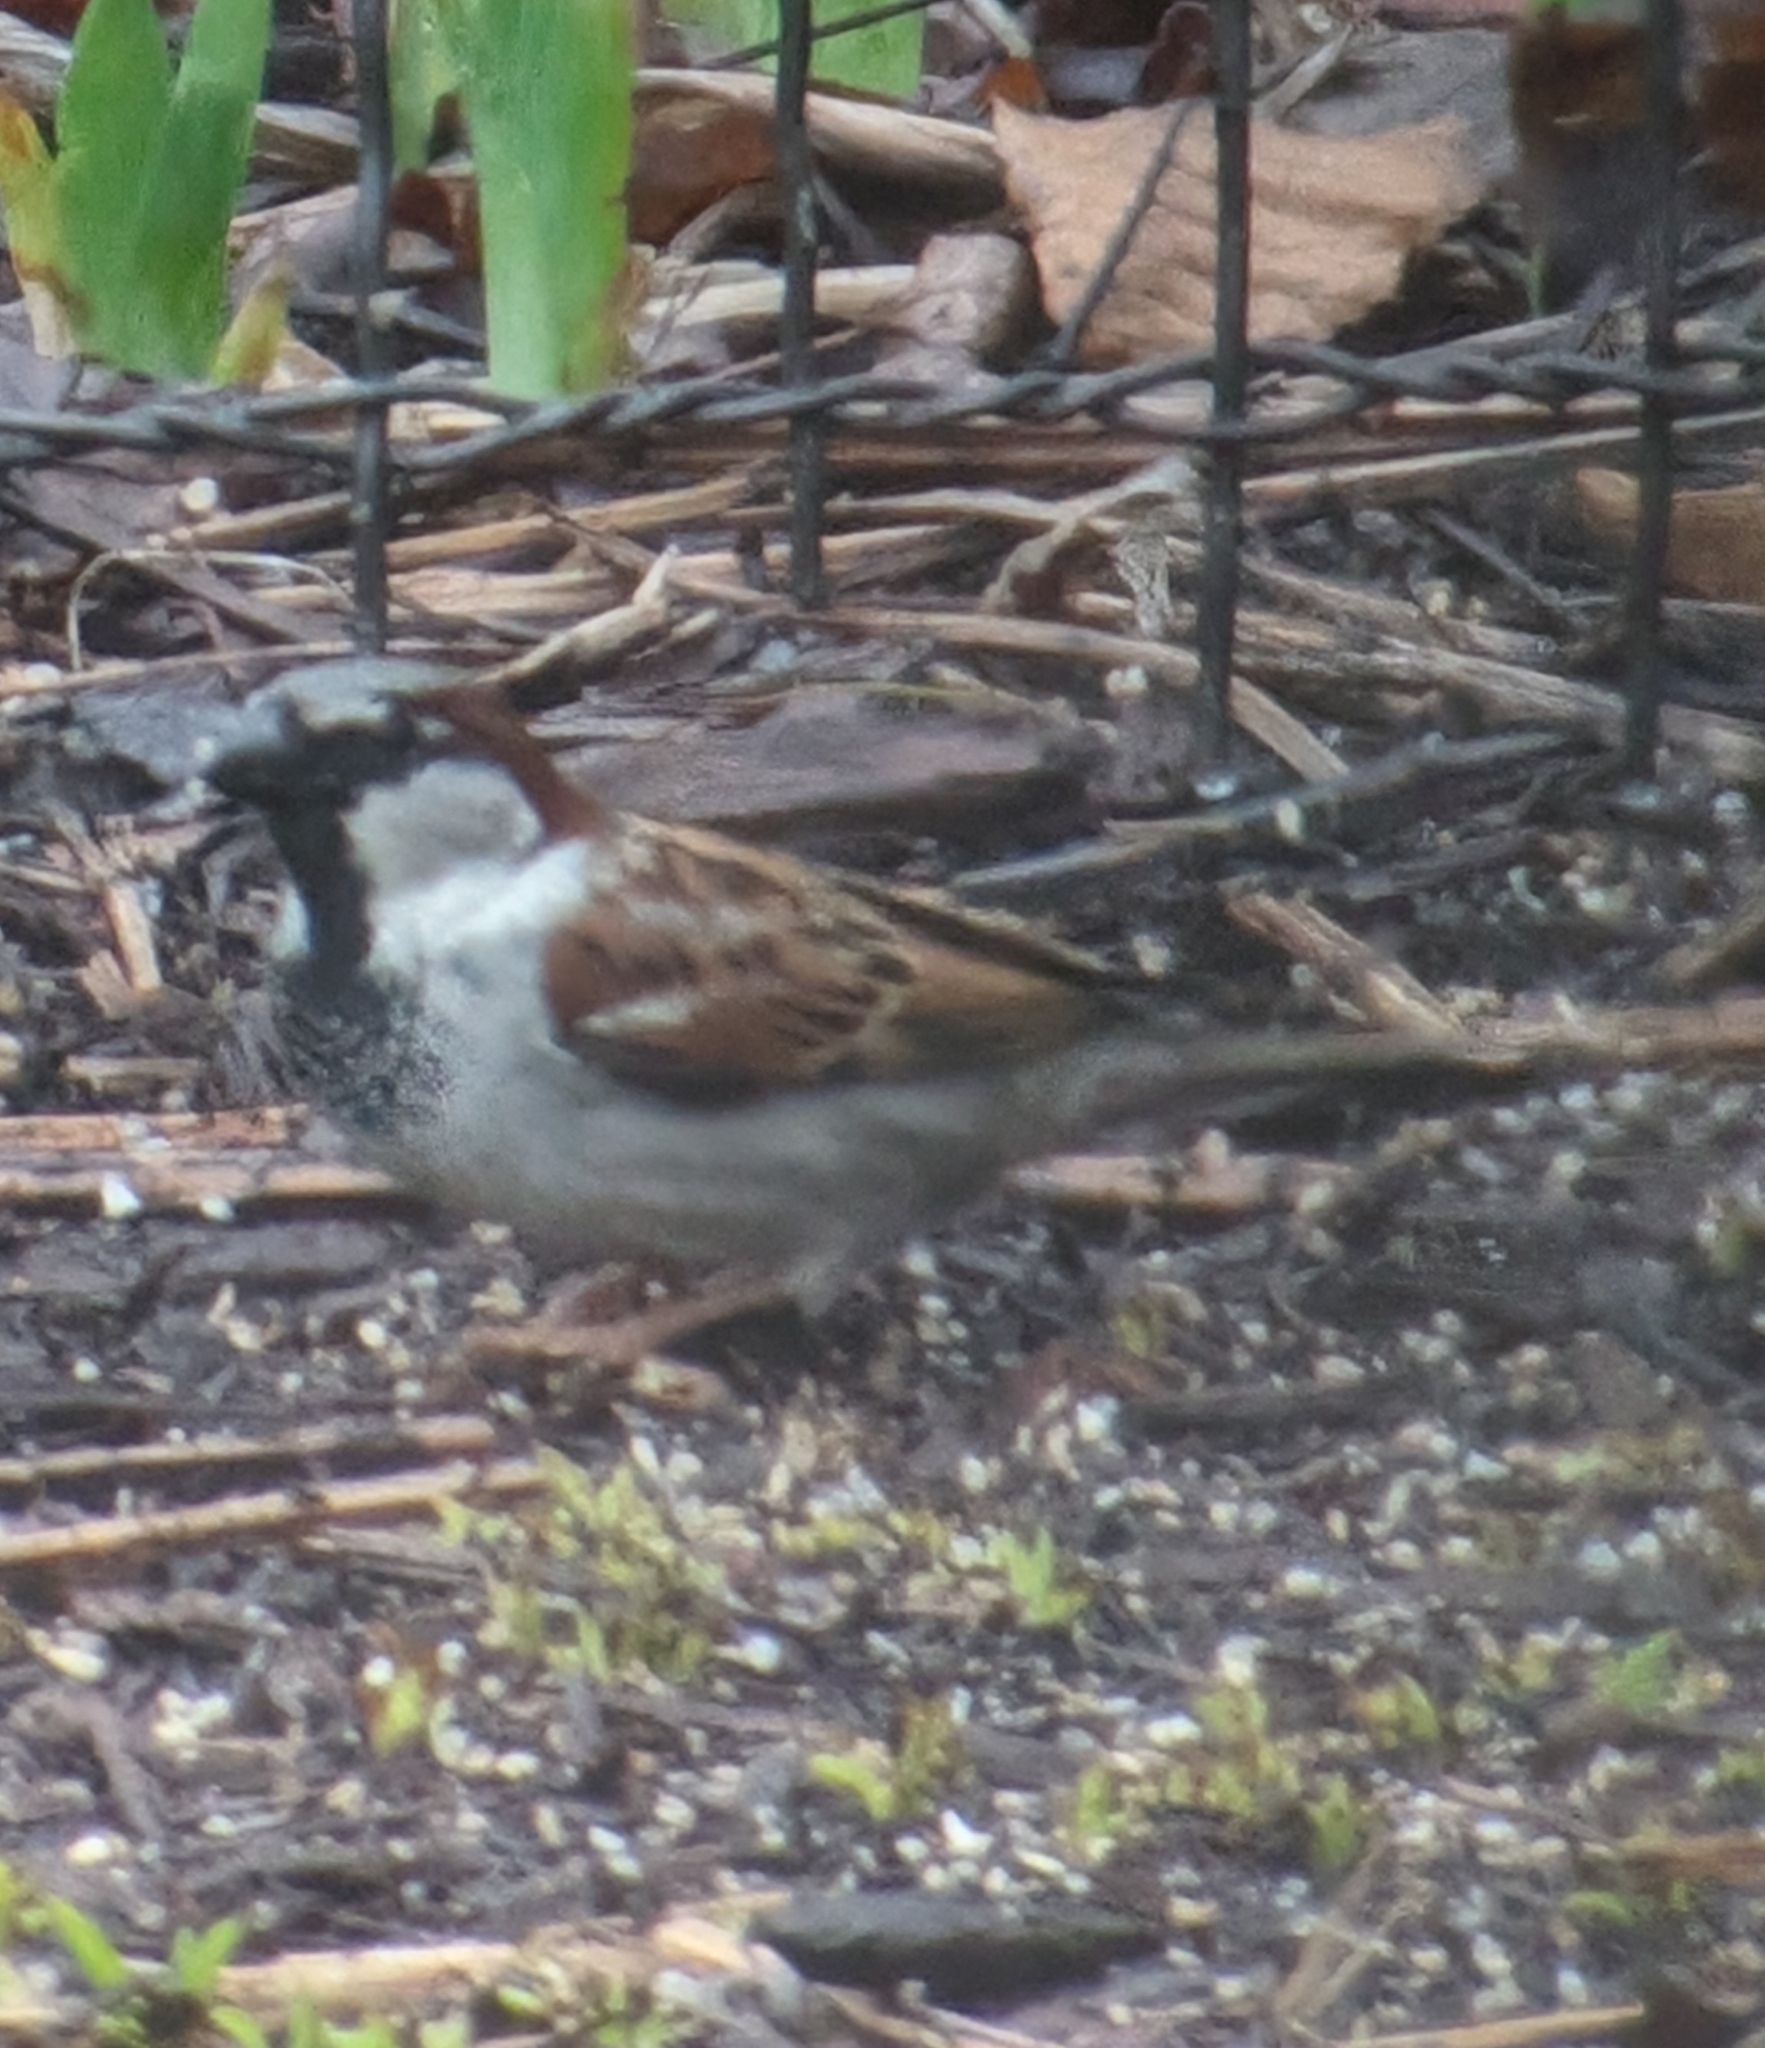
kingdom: Animalia
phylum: Chordata
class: Aves
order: Passeriformes
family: Passeridae
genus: Passer
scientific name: Passer domesticus
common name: House sparrow
